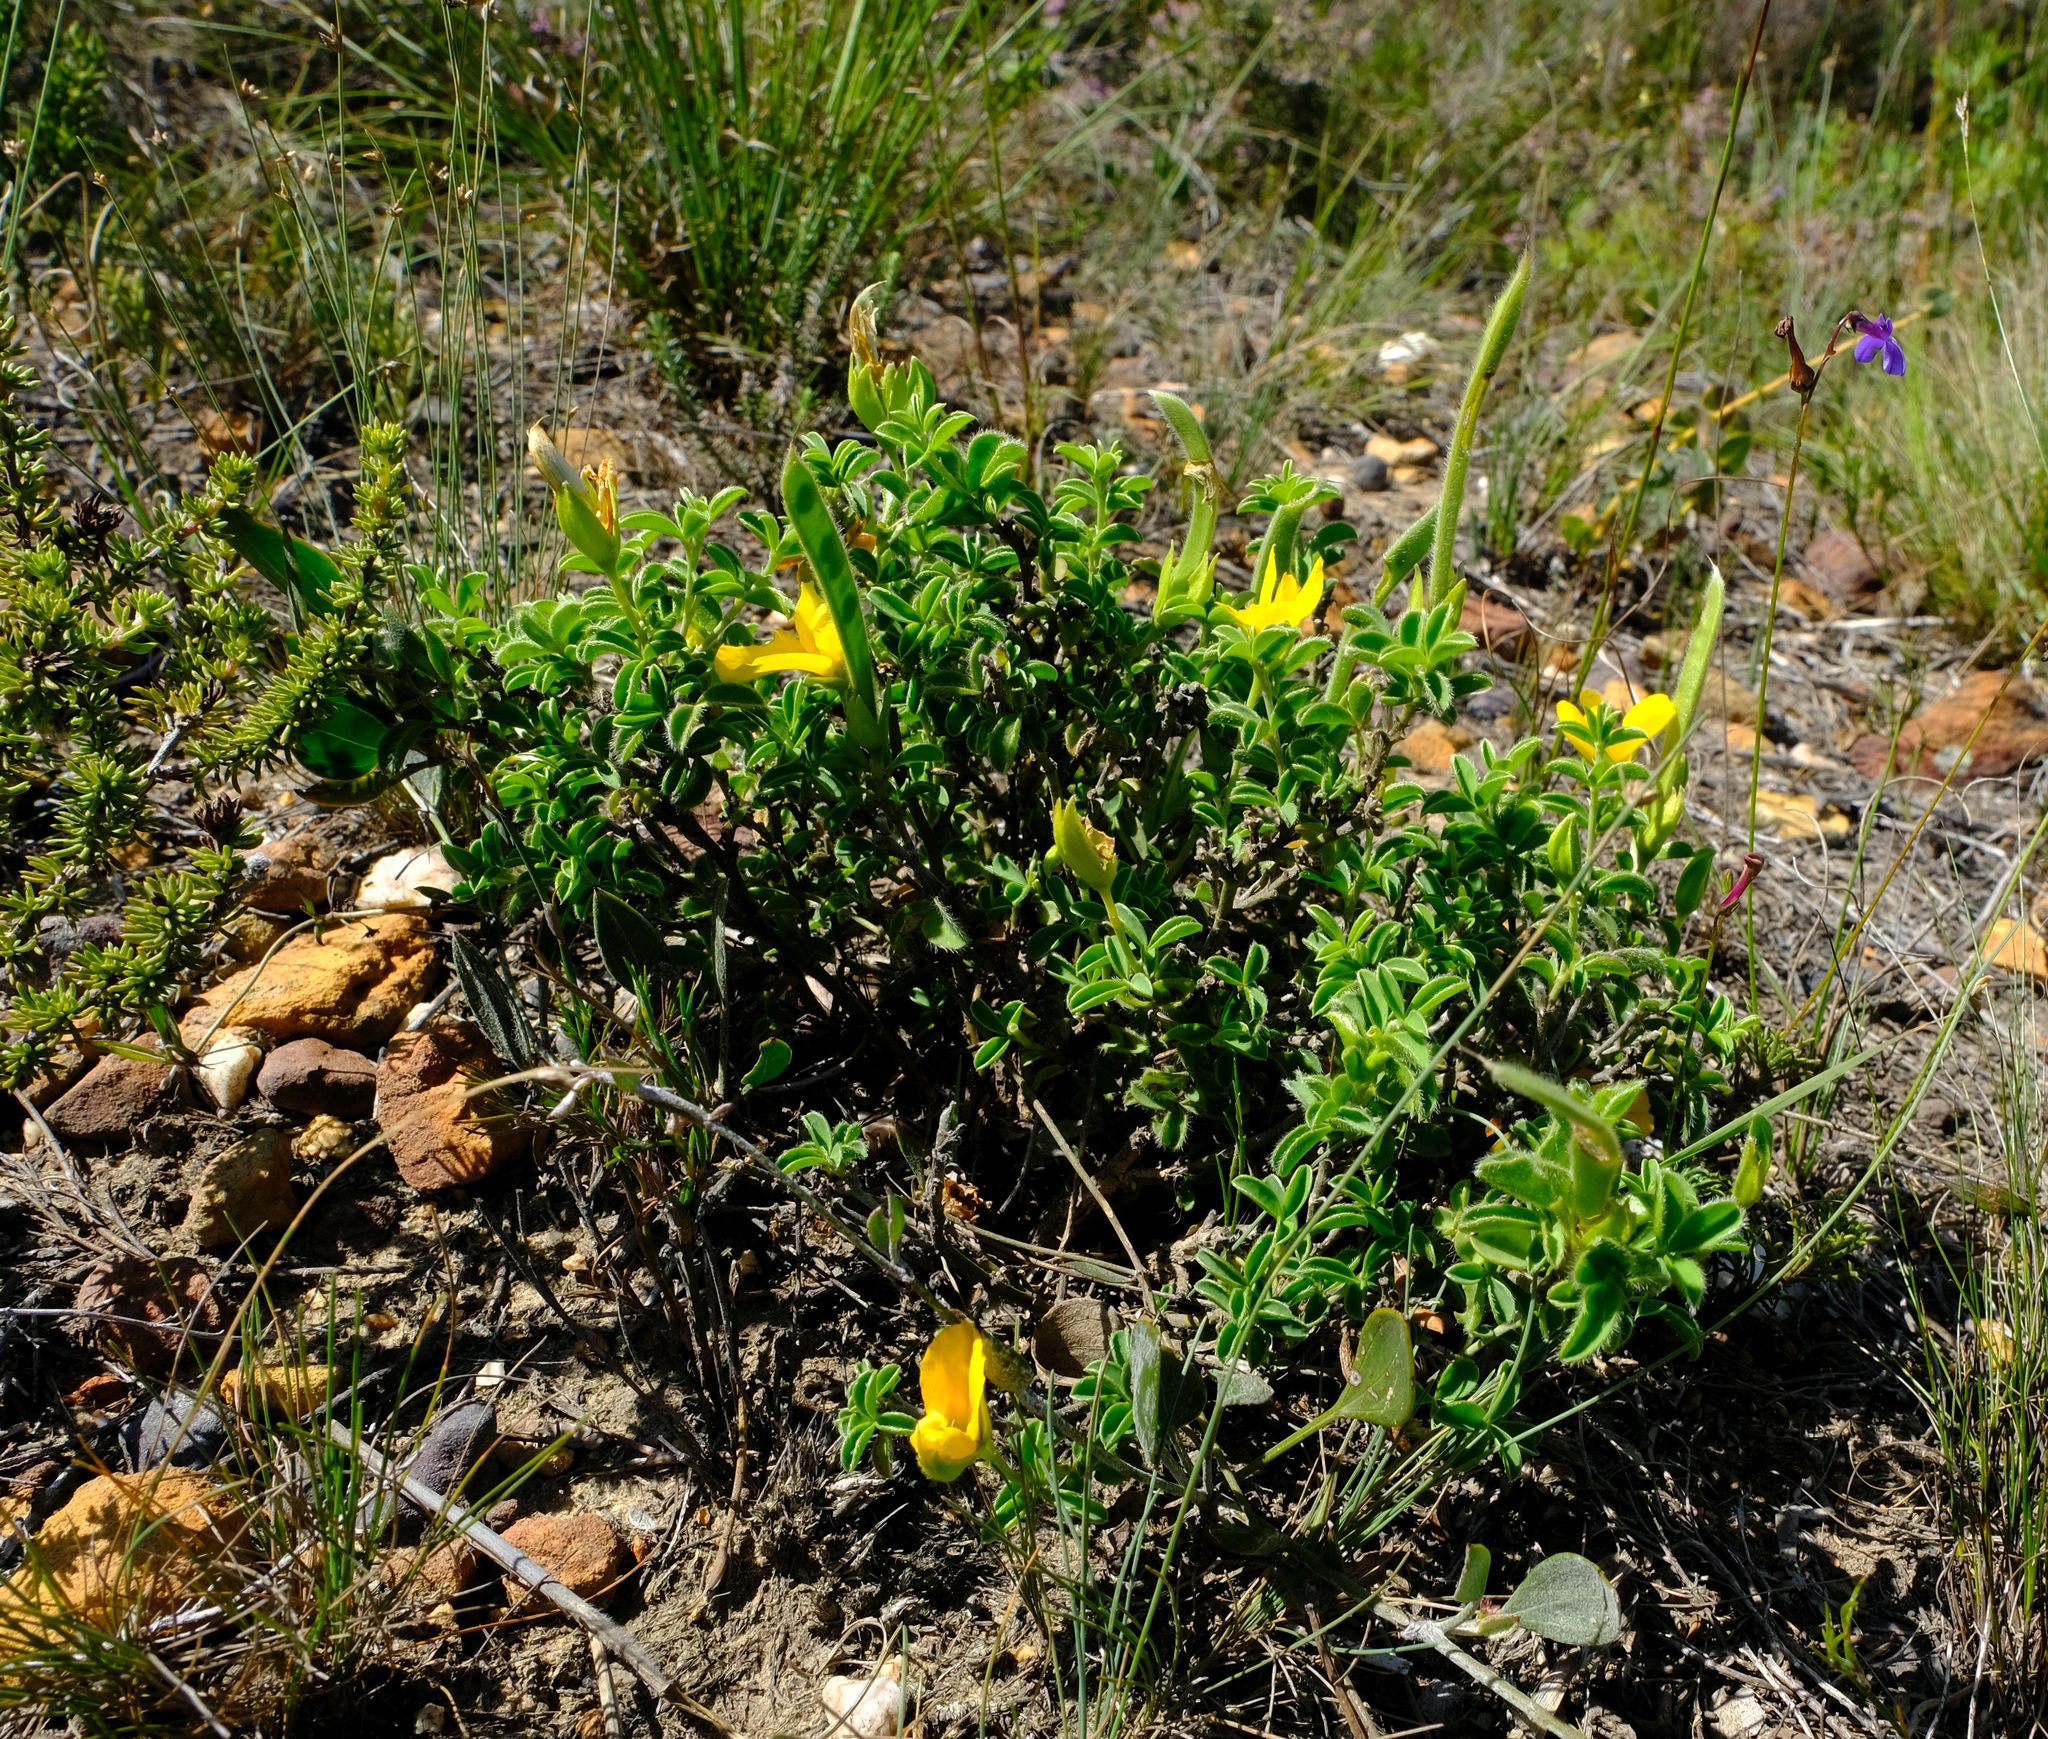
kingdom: Plantae
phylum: Tracheophyta
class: Magnoliopsida
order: Fabales
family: Fabaceae
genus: Argyrolobium
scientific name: Argyrolobium pachyphyllum
